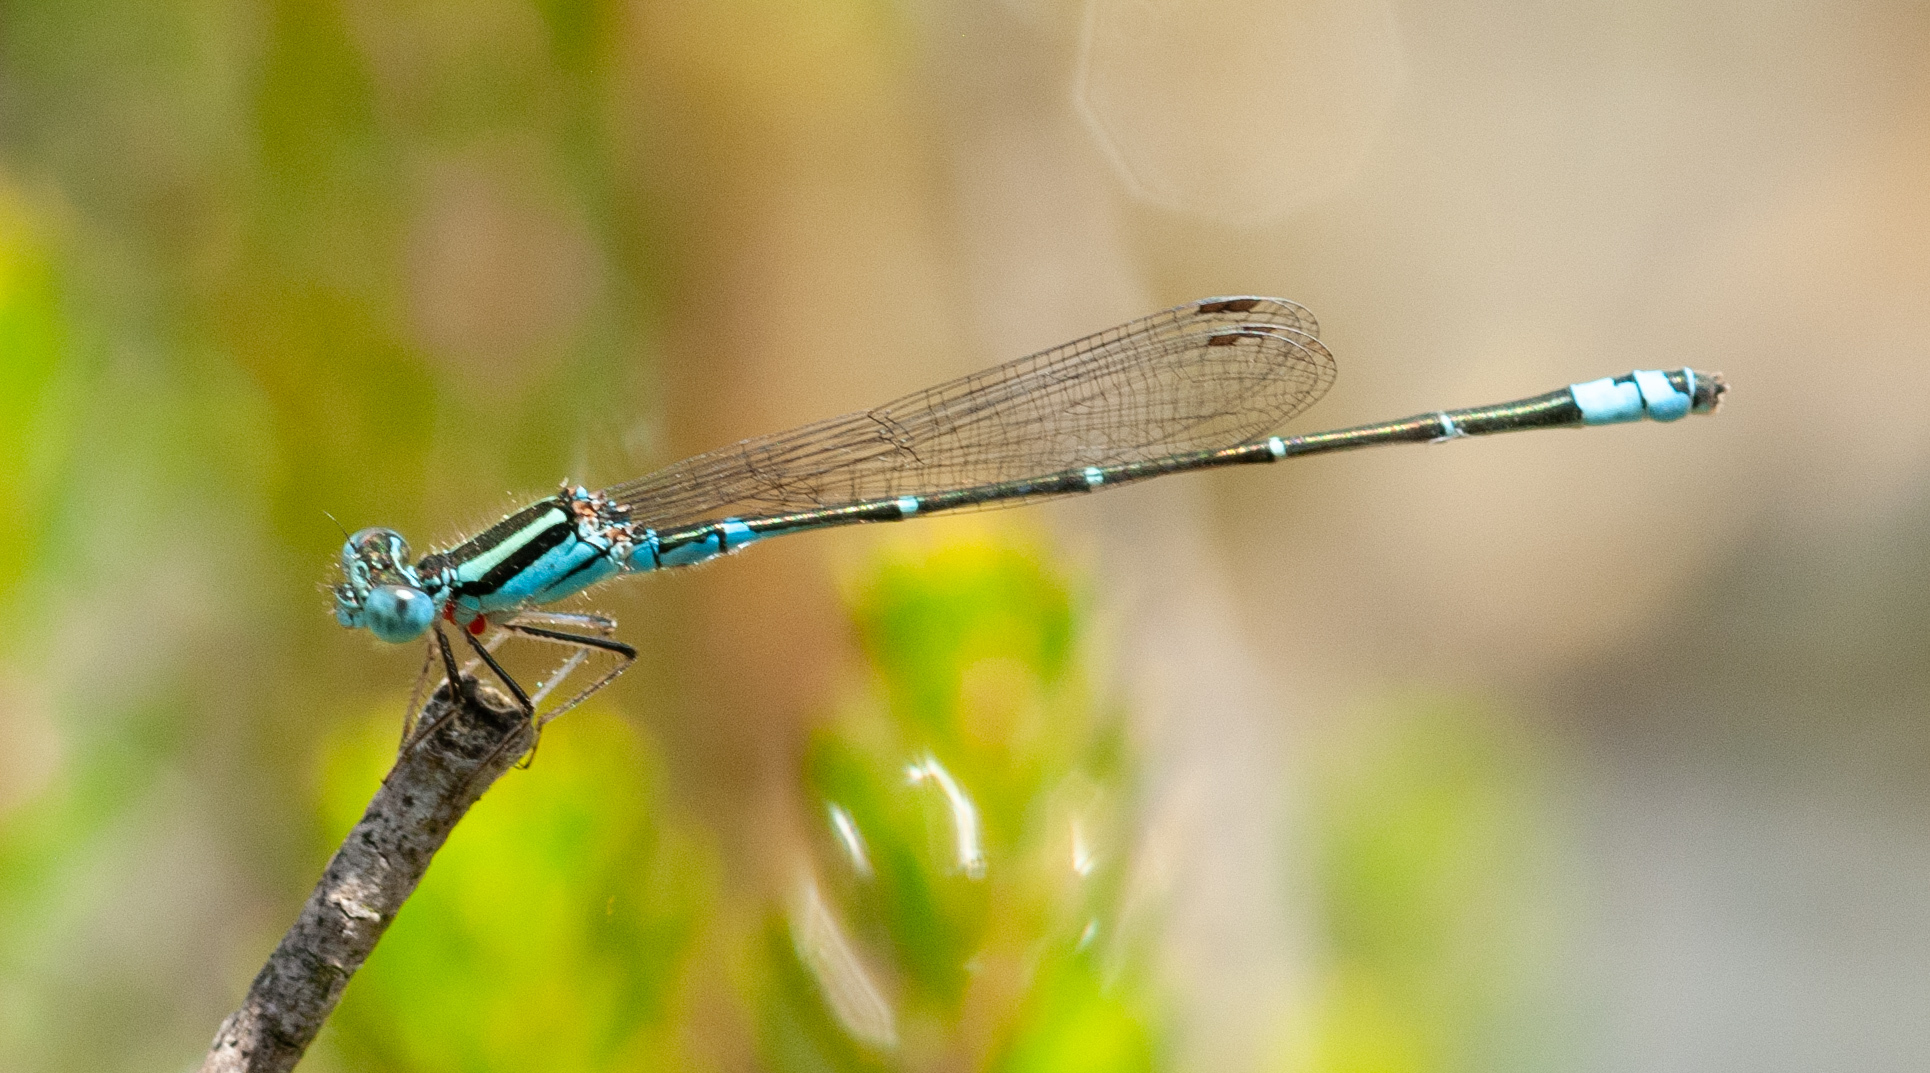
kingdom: Animalia
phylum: Arthropoda
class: Insecta
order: Odonata
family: Coenagrionidae
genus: Austroagrion
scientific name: Austroagrion watsoni
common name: Eastern billabongfly
